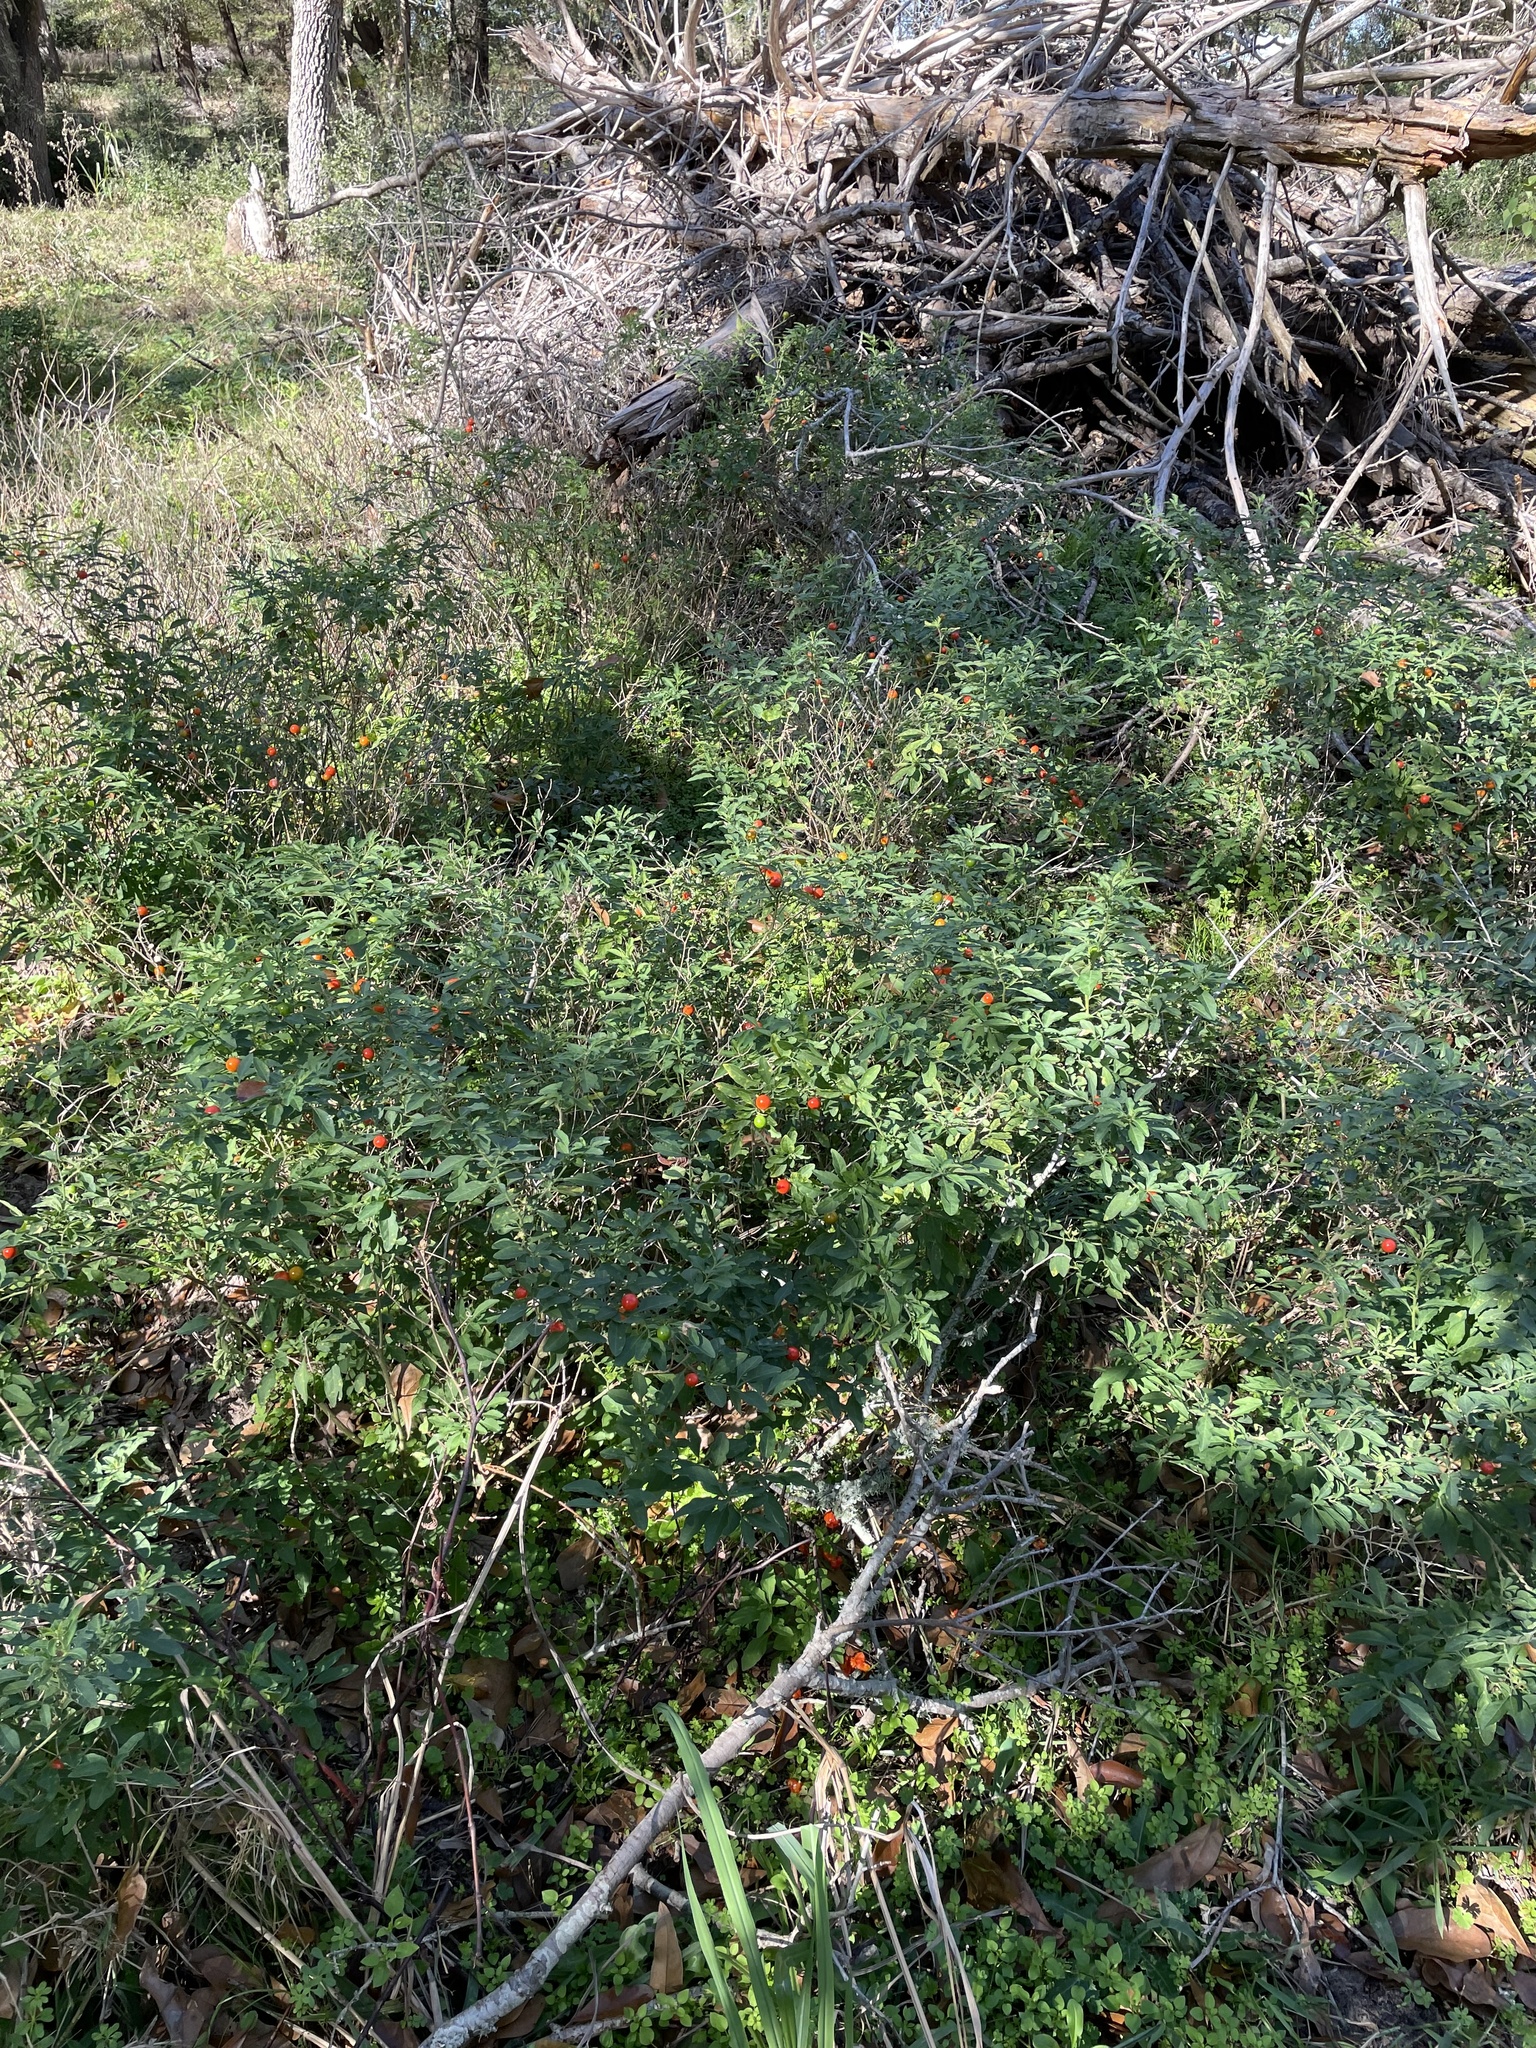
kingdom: Plantae
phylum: Tracheophyta
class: Magnoliopsida
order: Solanales
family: Solanaceae
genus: Solanum
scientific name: Solanum pseudocapsicum
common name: Jerusalem cherry
